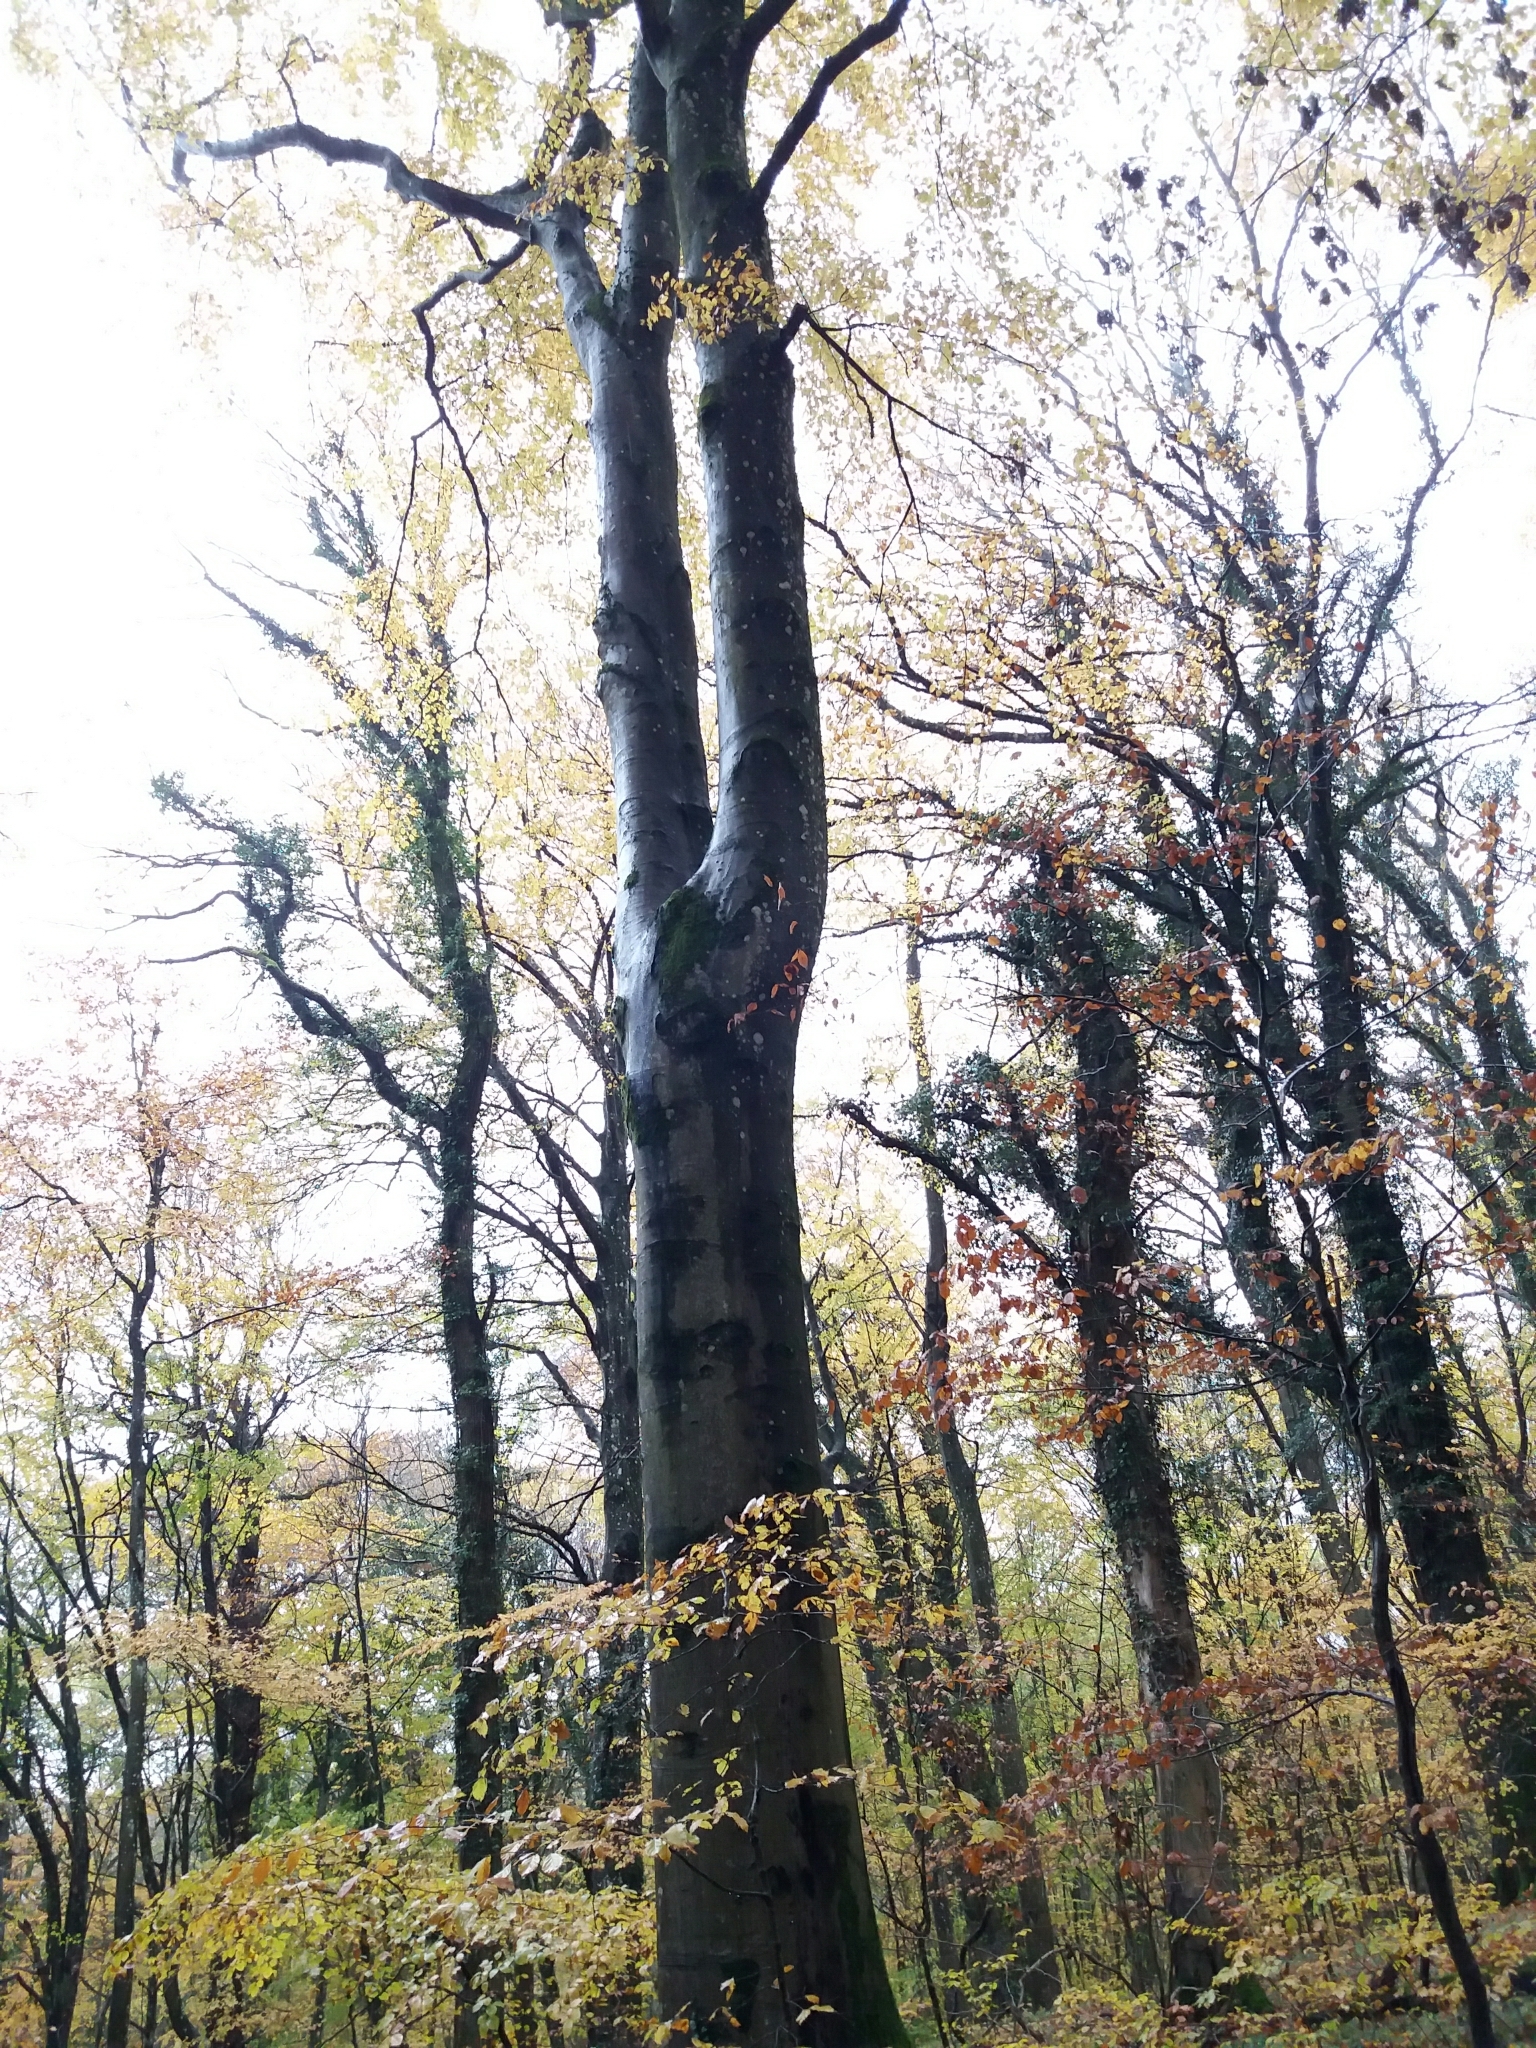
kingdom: Plantae
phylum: Tracheophyta
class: Magnoliopsida
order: Fagales
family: Fagaceae
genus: Fagus
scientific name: Fagus sylvatica
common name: Beech
